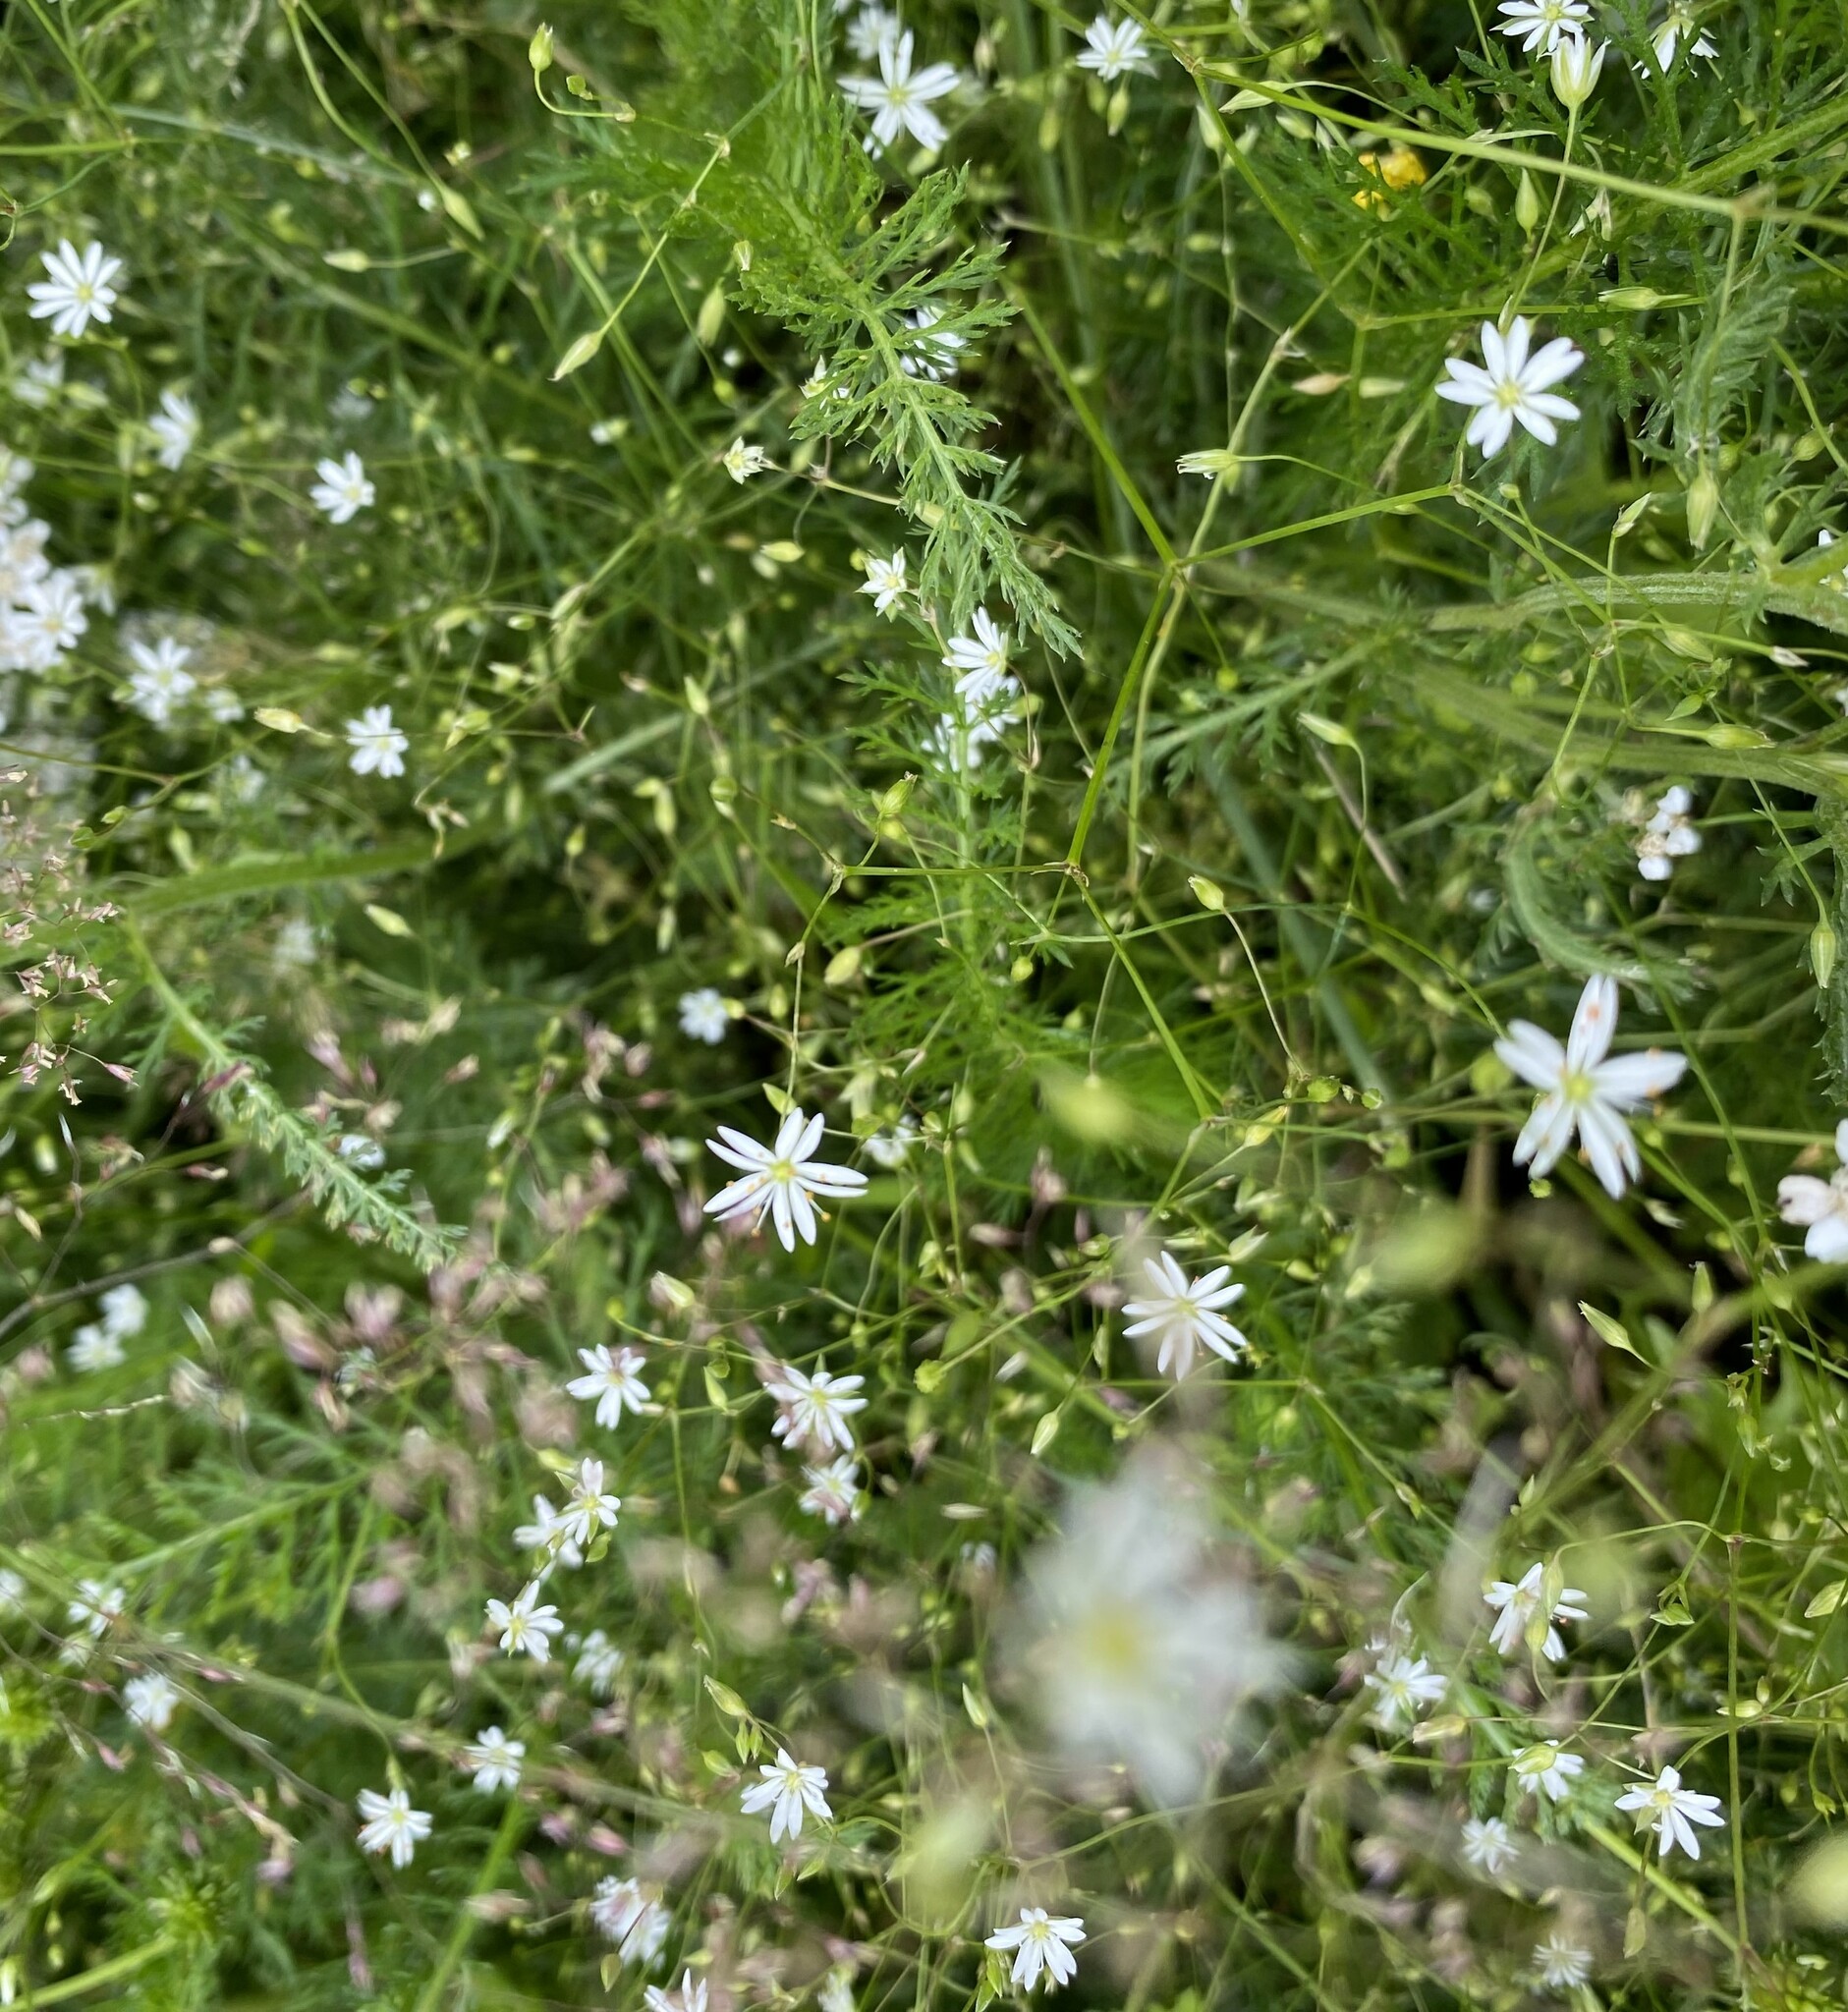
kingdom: Plantae
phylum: Tracheophyta
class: Magnoliopsida
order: Caryophyllales
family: Caryophyllaceae
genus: Stellaria
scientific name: Stellaria graminea
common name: Grass-like starwort
